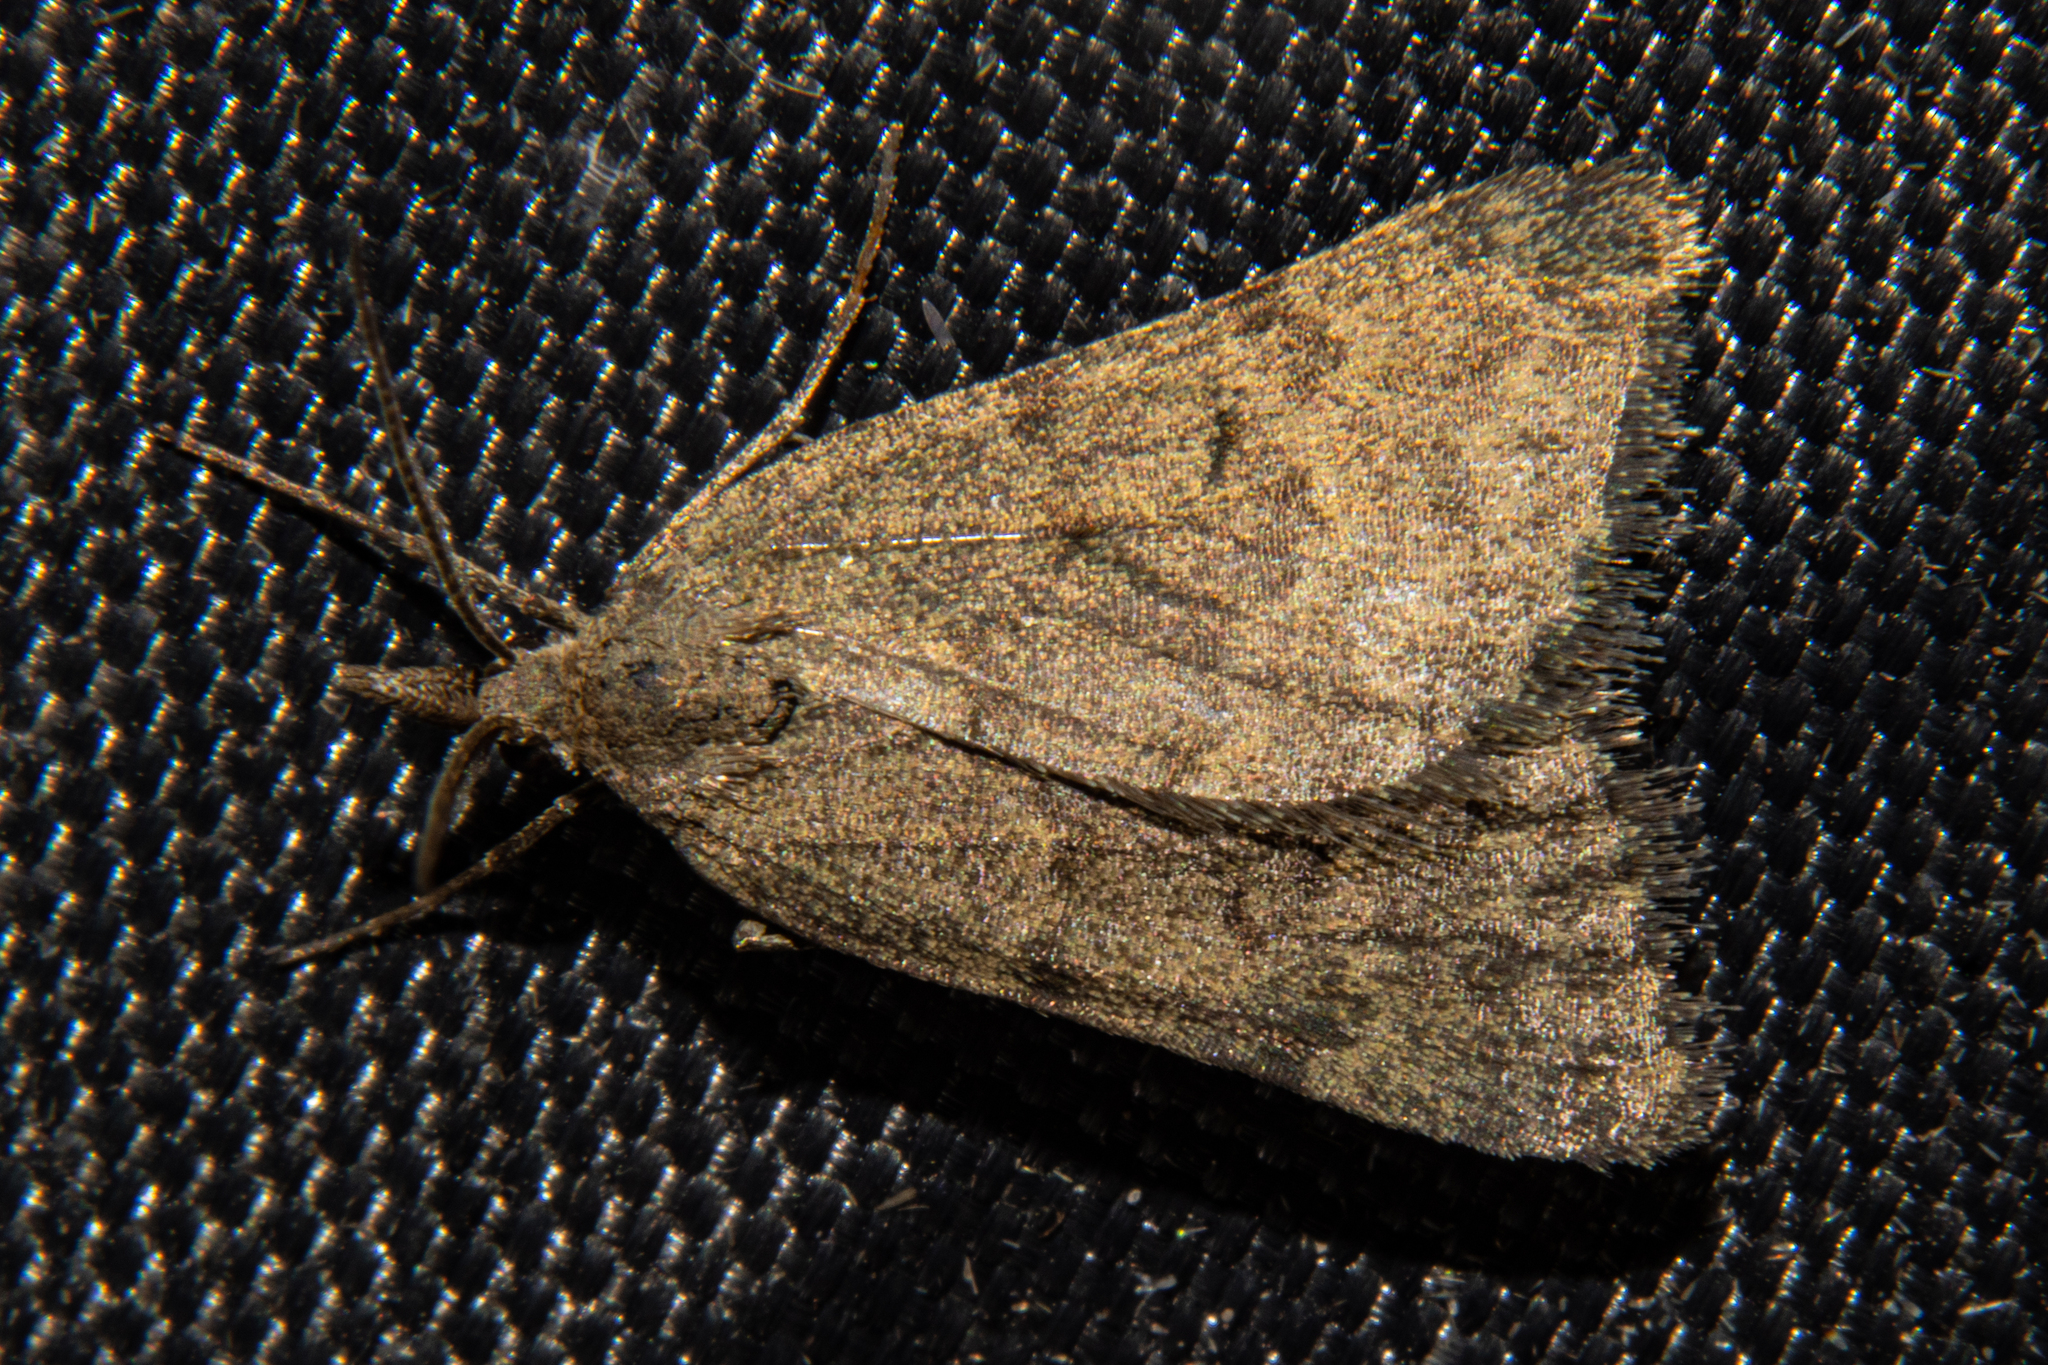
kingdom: Animalia
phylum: Arthropoda
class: Insecta
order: Lepidoptera
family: Geometridae
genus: Dichromodes
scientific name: Dichromodes sphaeriata
